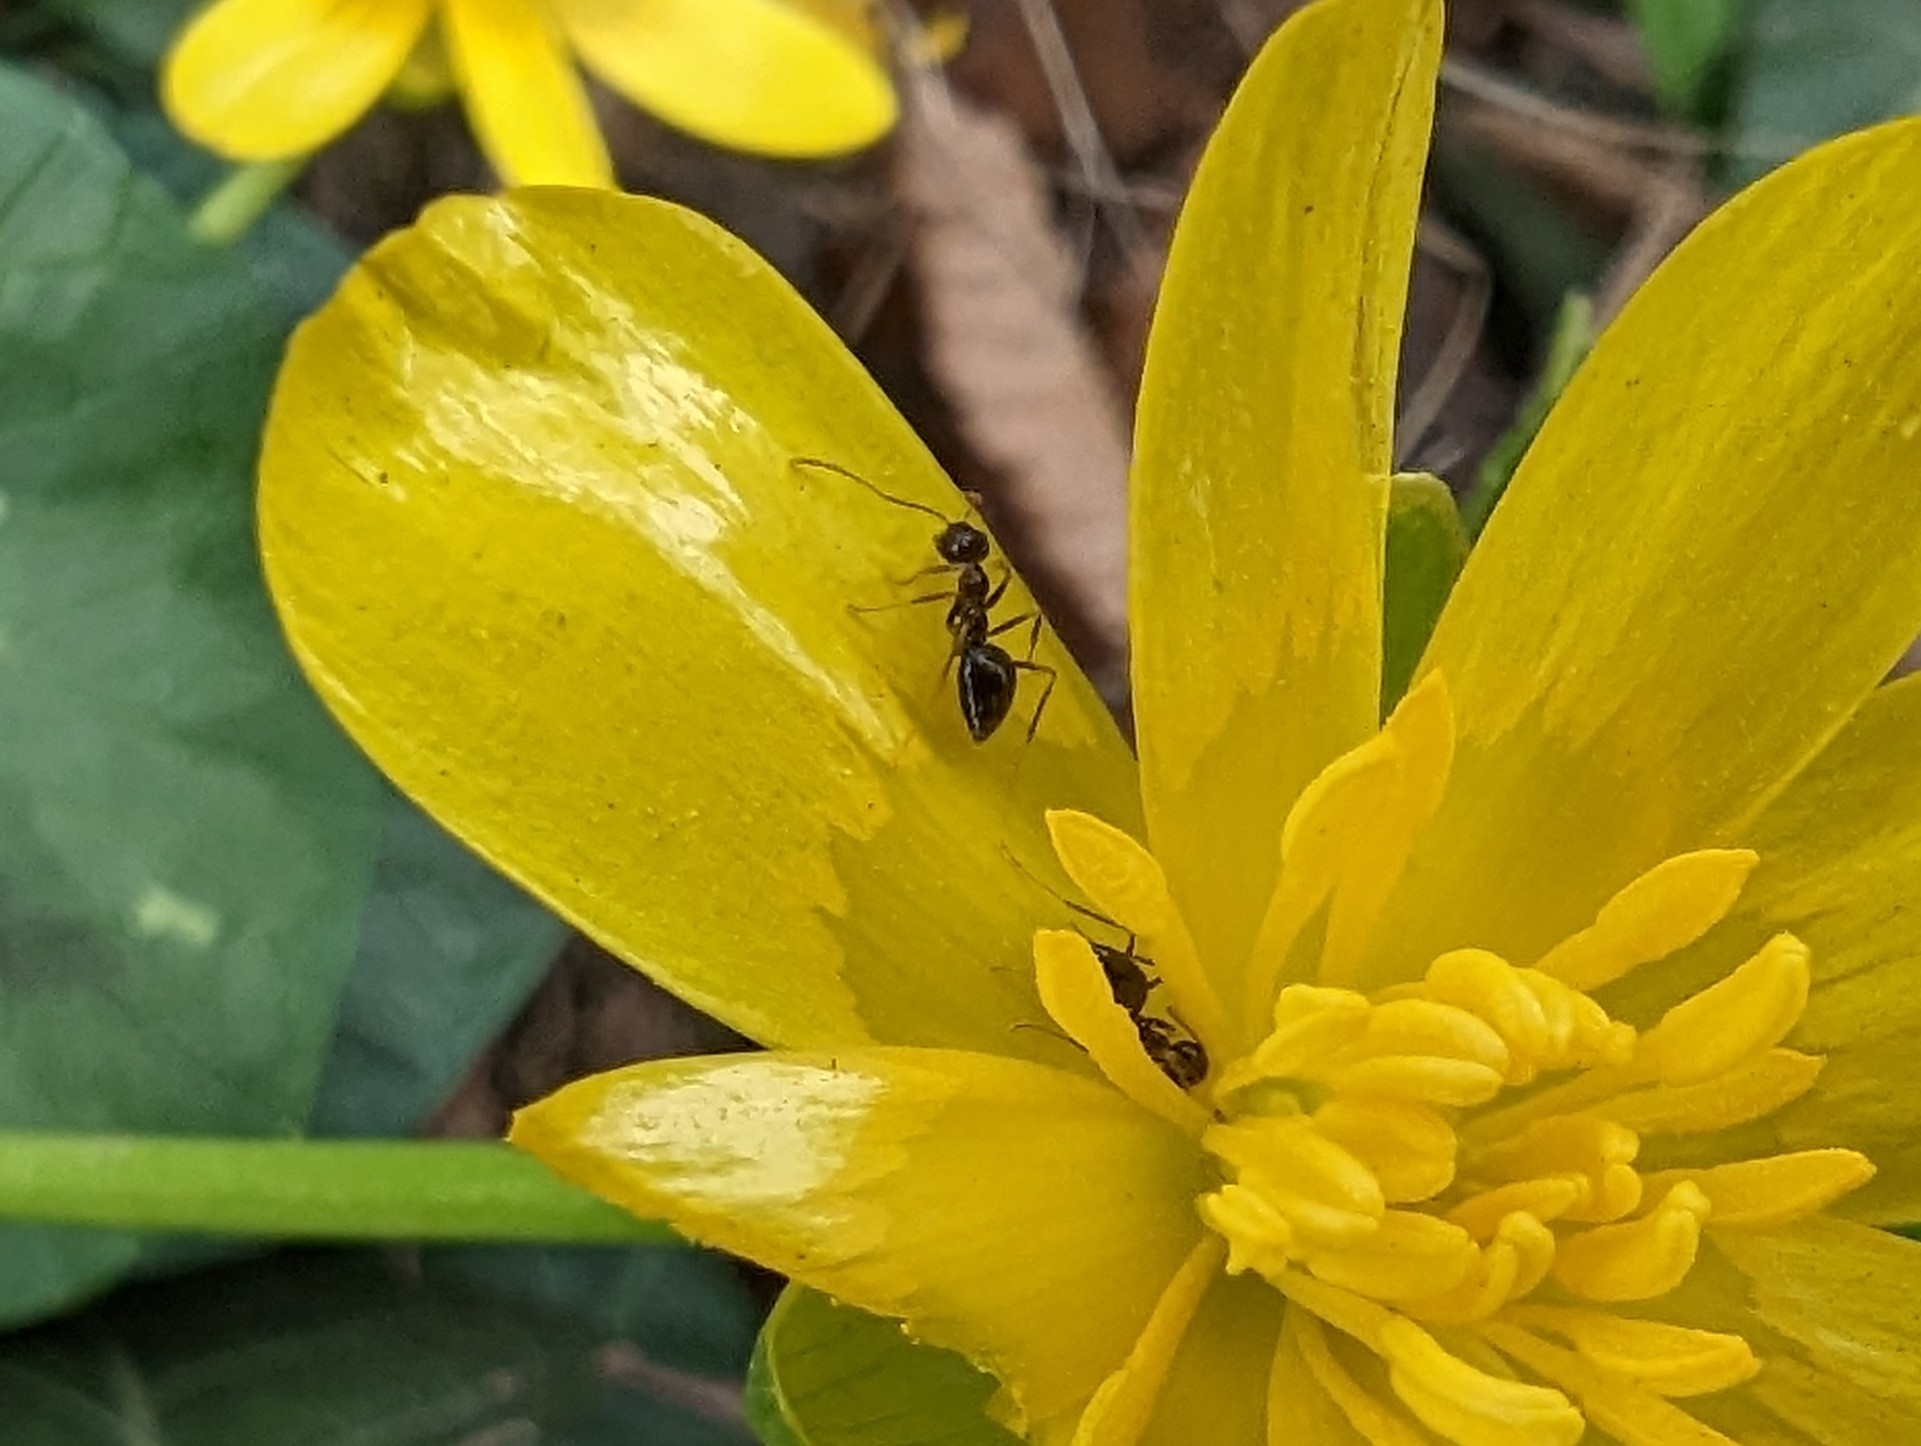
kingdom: Animalia
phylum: Arthropoda
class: Insecta
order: Hymenoptera
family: Formicidae
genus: Prenolepis
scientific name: Prenolepis imparis
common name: Small honey ant
